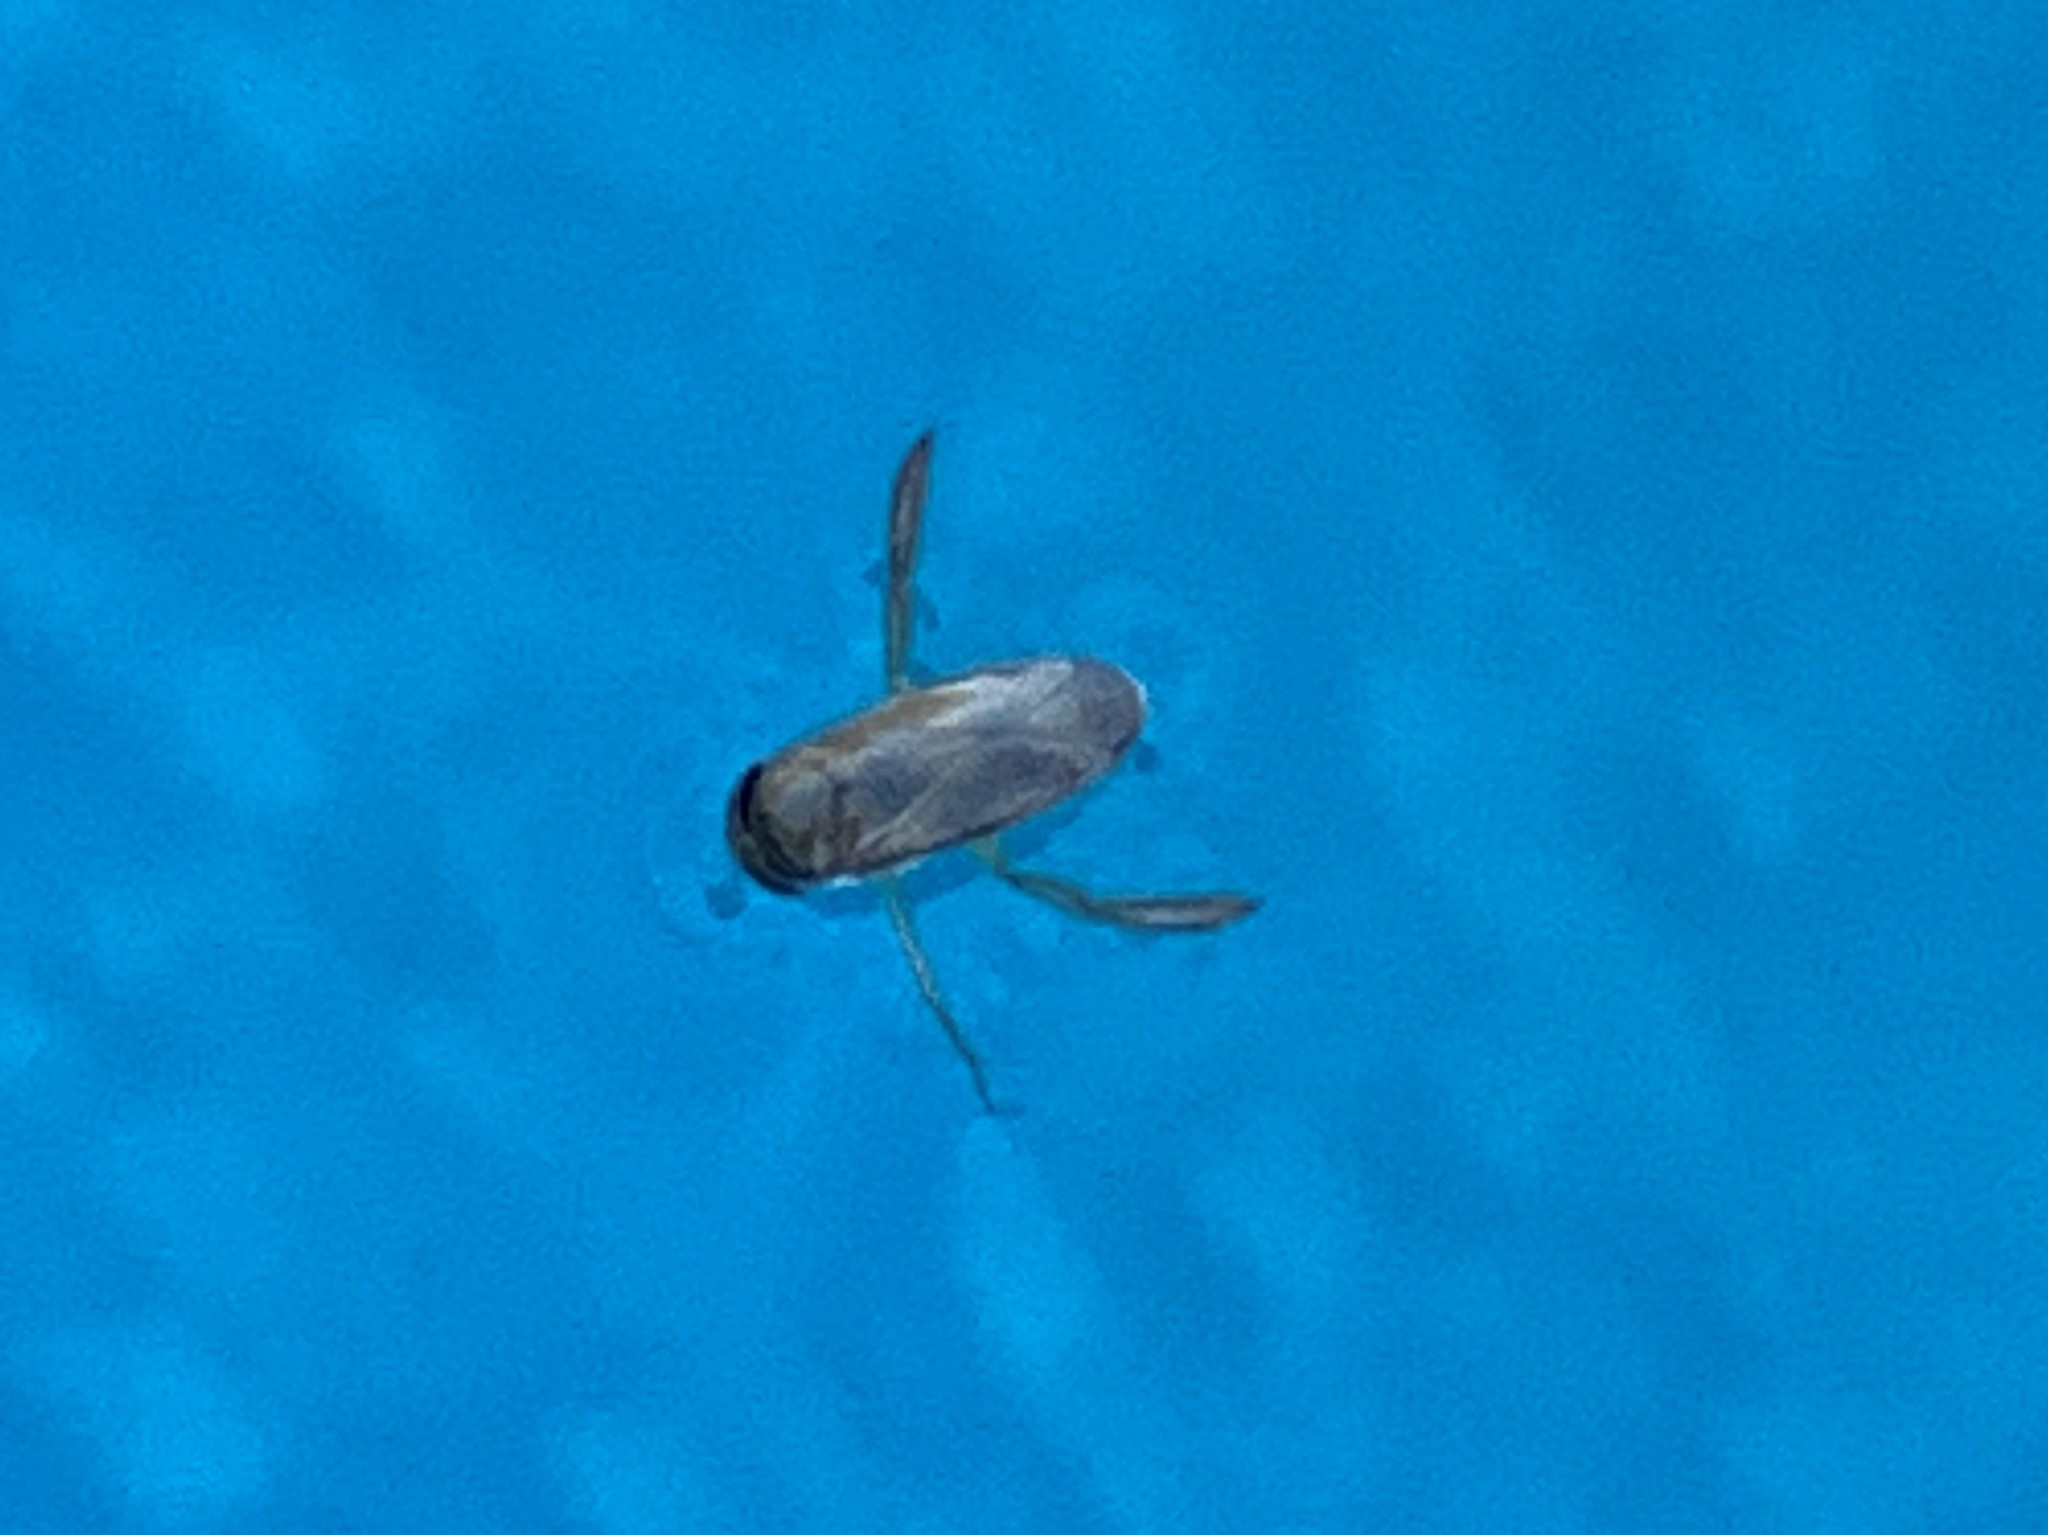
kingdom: Animalia
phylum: Arthropoda
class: Insecta
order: Hemiptera
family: Corixidae
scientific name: Corixidae
